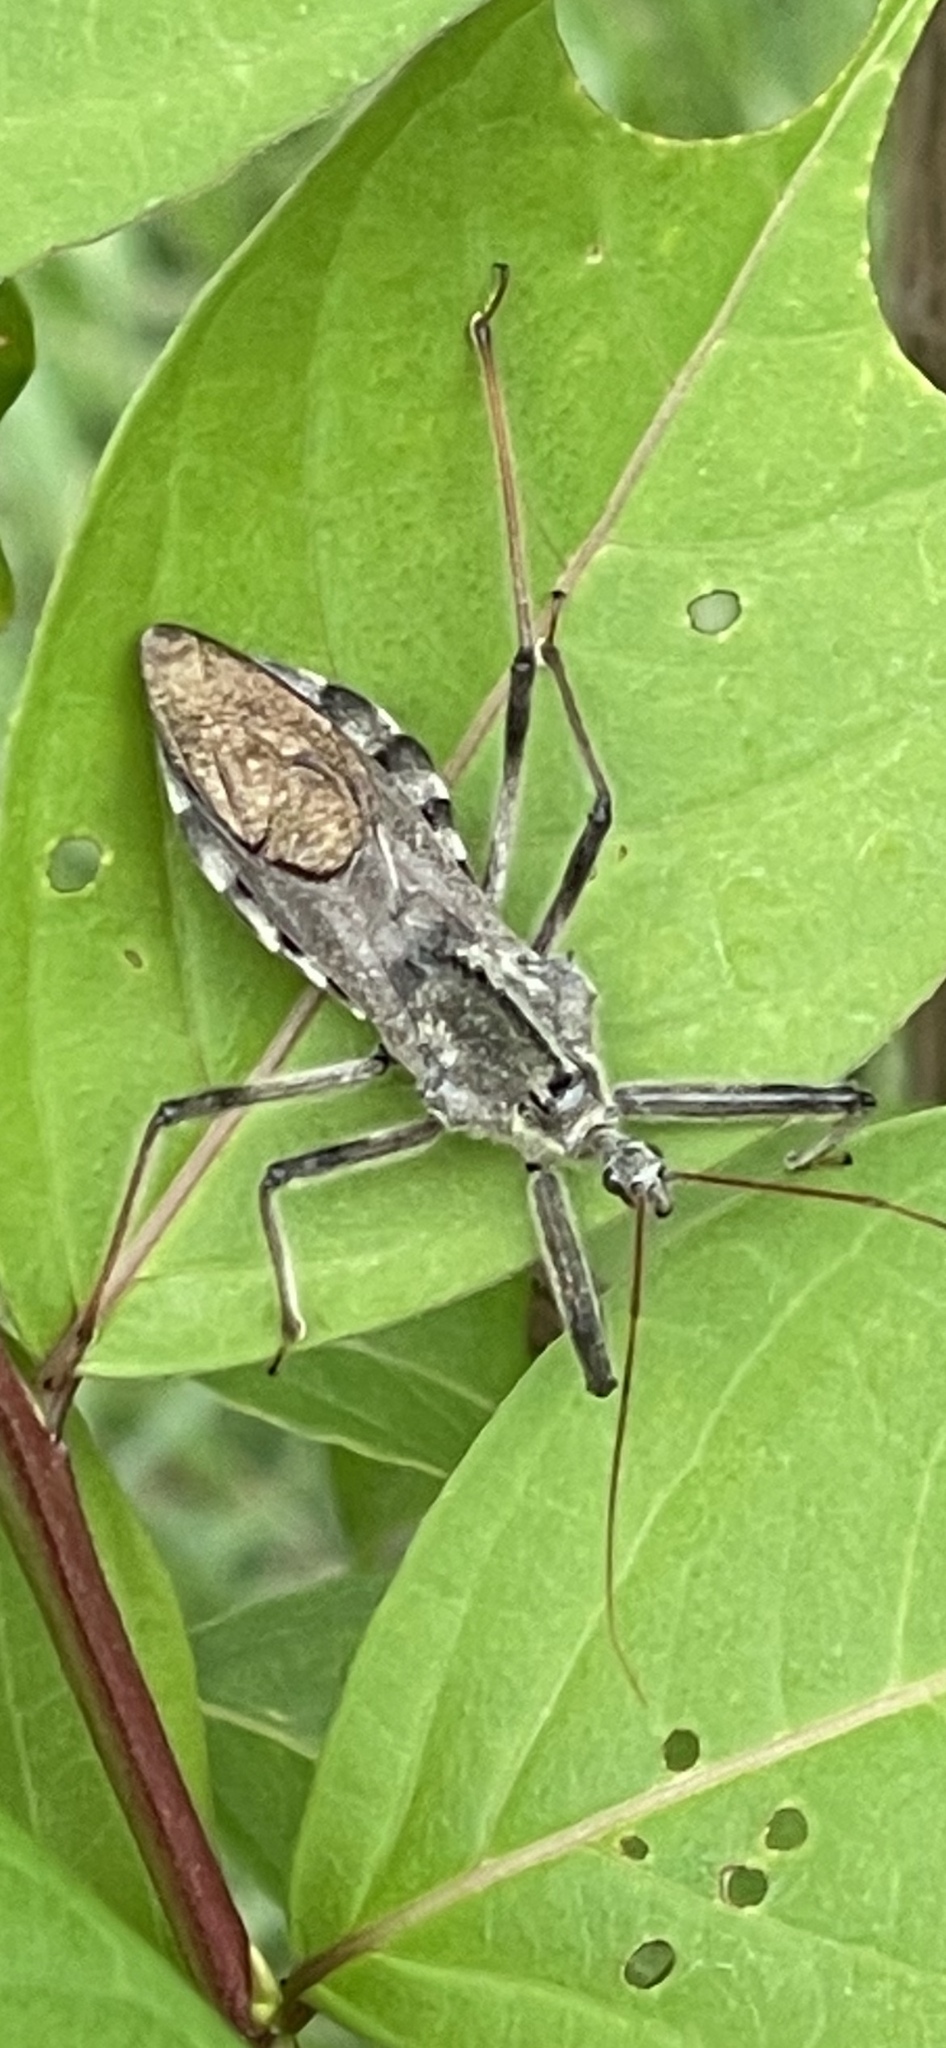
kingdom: Animalia
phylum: Arthropoda
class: Insecta
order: Hemiptera
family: Reduviidae
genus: Arilus
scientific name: Arilus cristatus
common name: North american wheel bug
